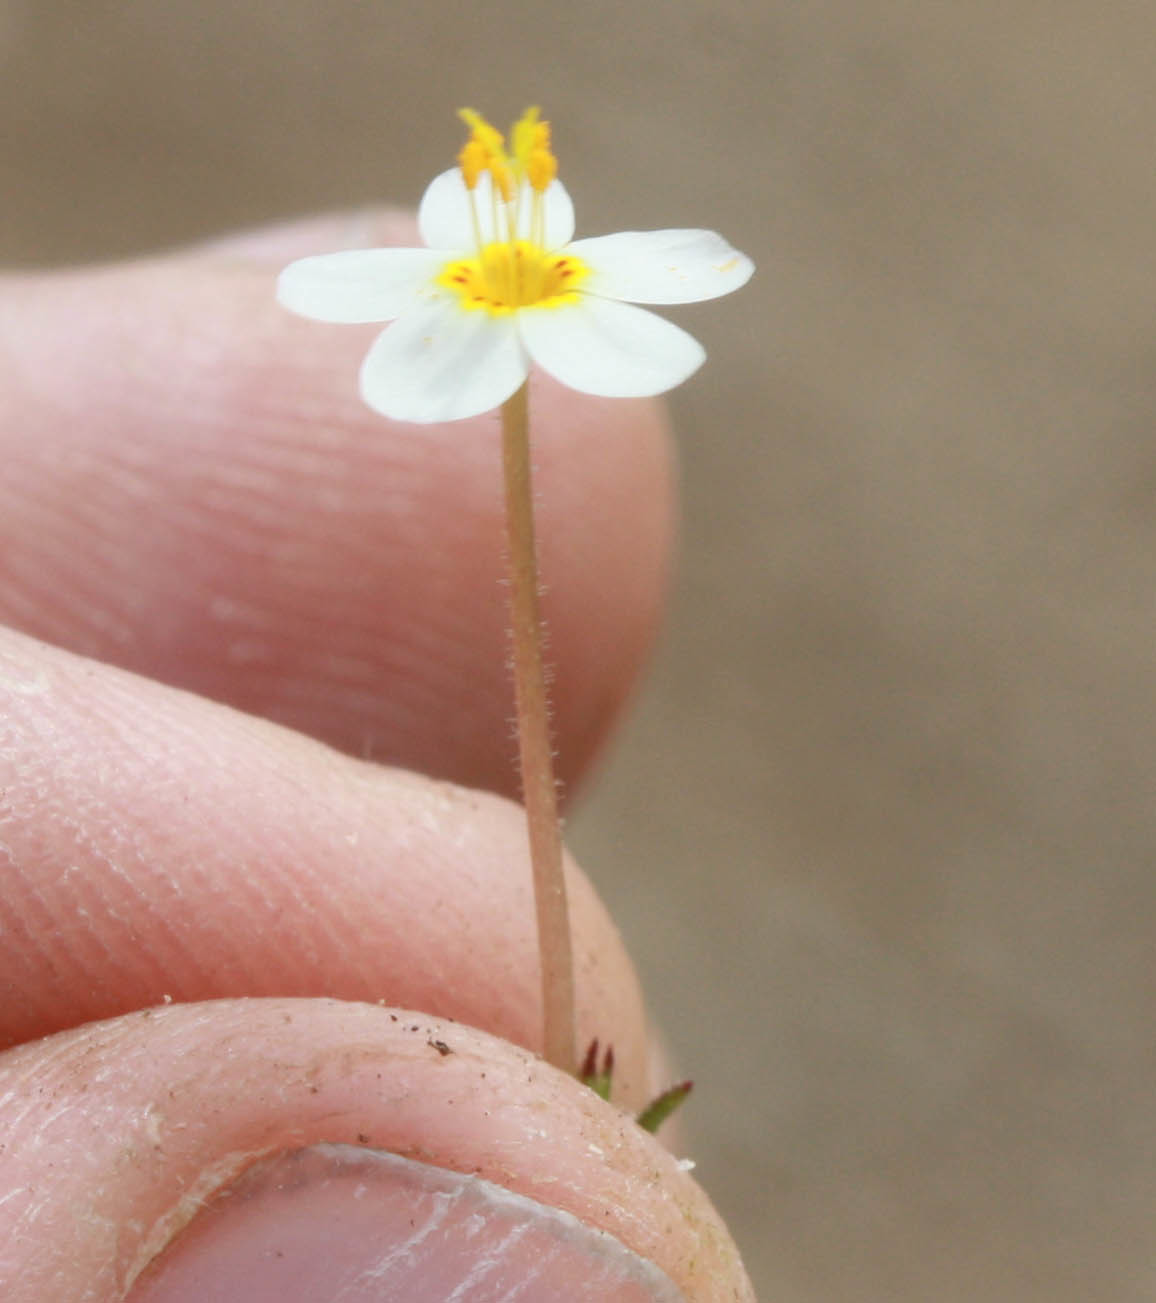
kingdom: Plantae
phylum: Tracheophyta
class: Magnoliopsida
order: Ericales
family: Polemoniaceae
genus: Leptosiphon
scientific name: Leptosiphon parviflorus
